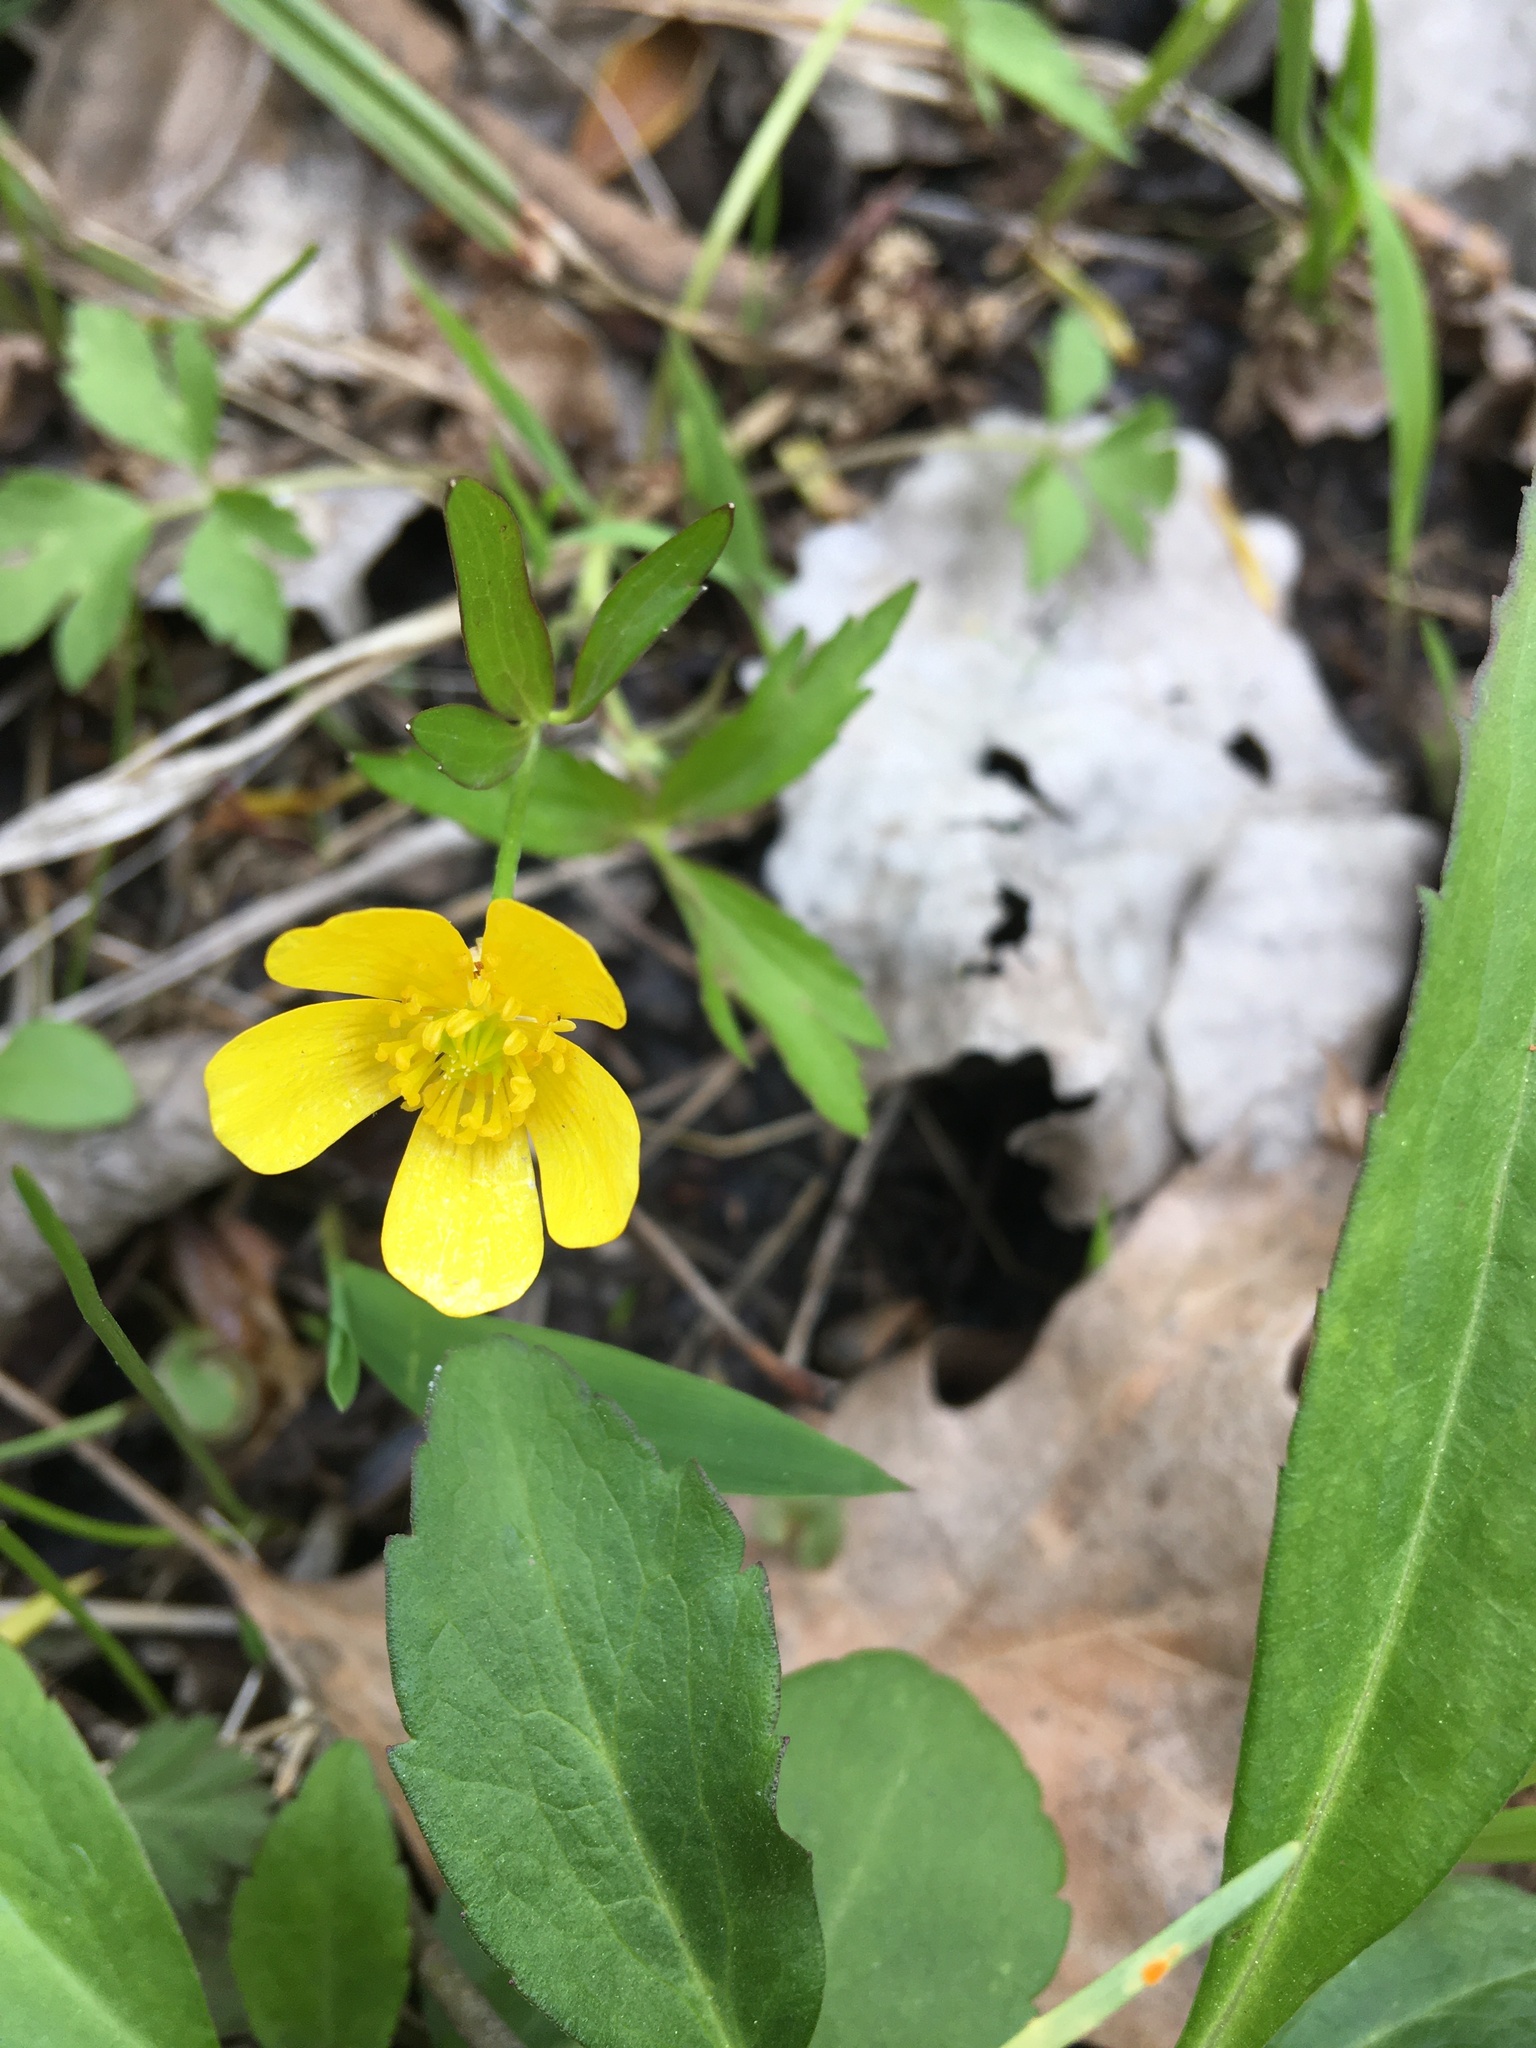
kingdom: Plantae
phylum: Tracheophyta
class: Magnoliopsida
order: Ranunculales
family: Ranunculaceae
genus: Ranunculus
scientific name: Ranunculus hispidus
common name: Bristly buttercup
